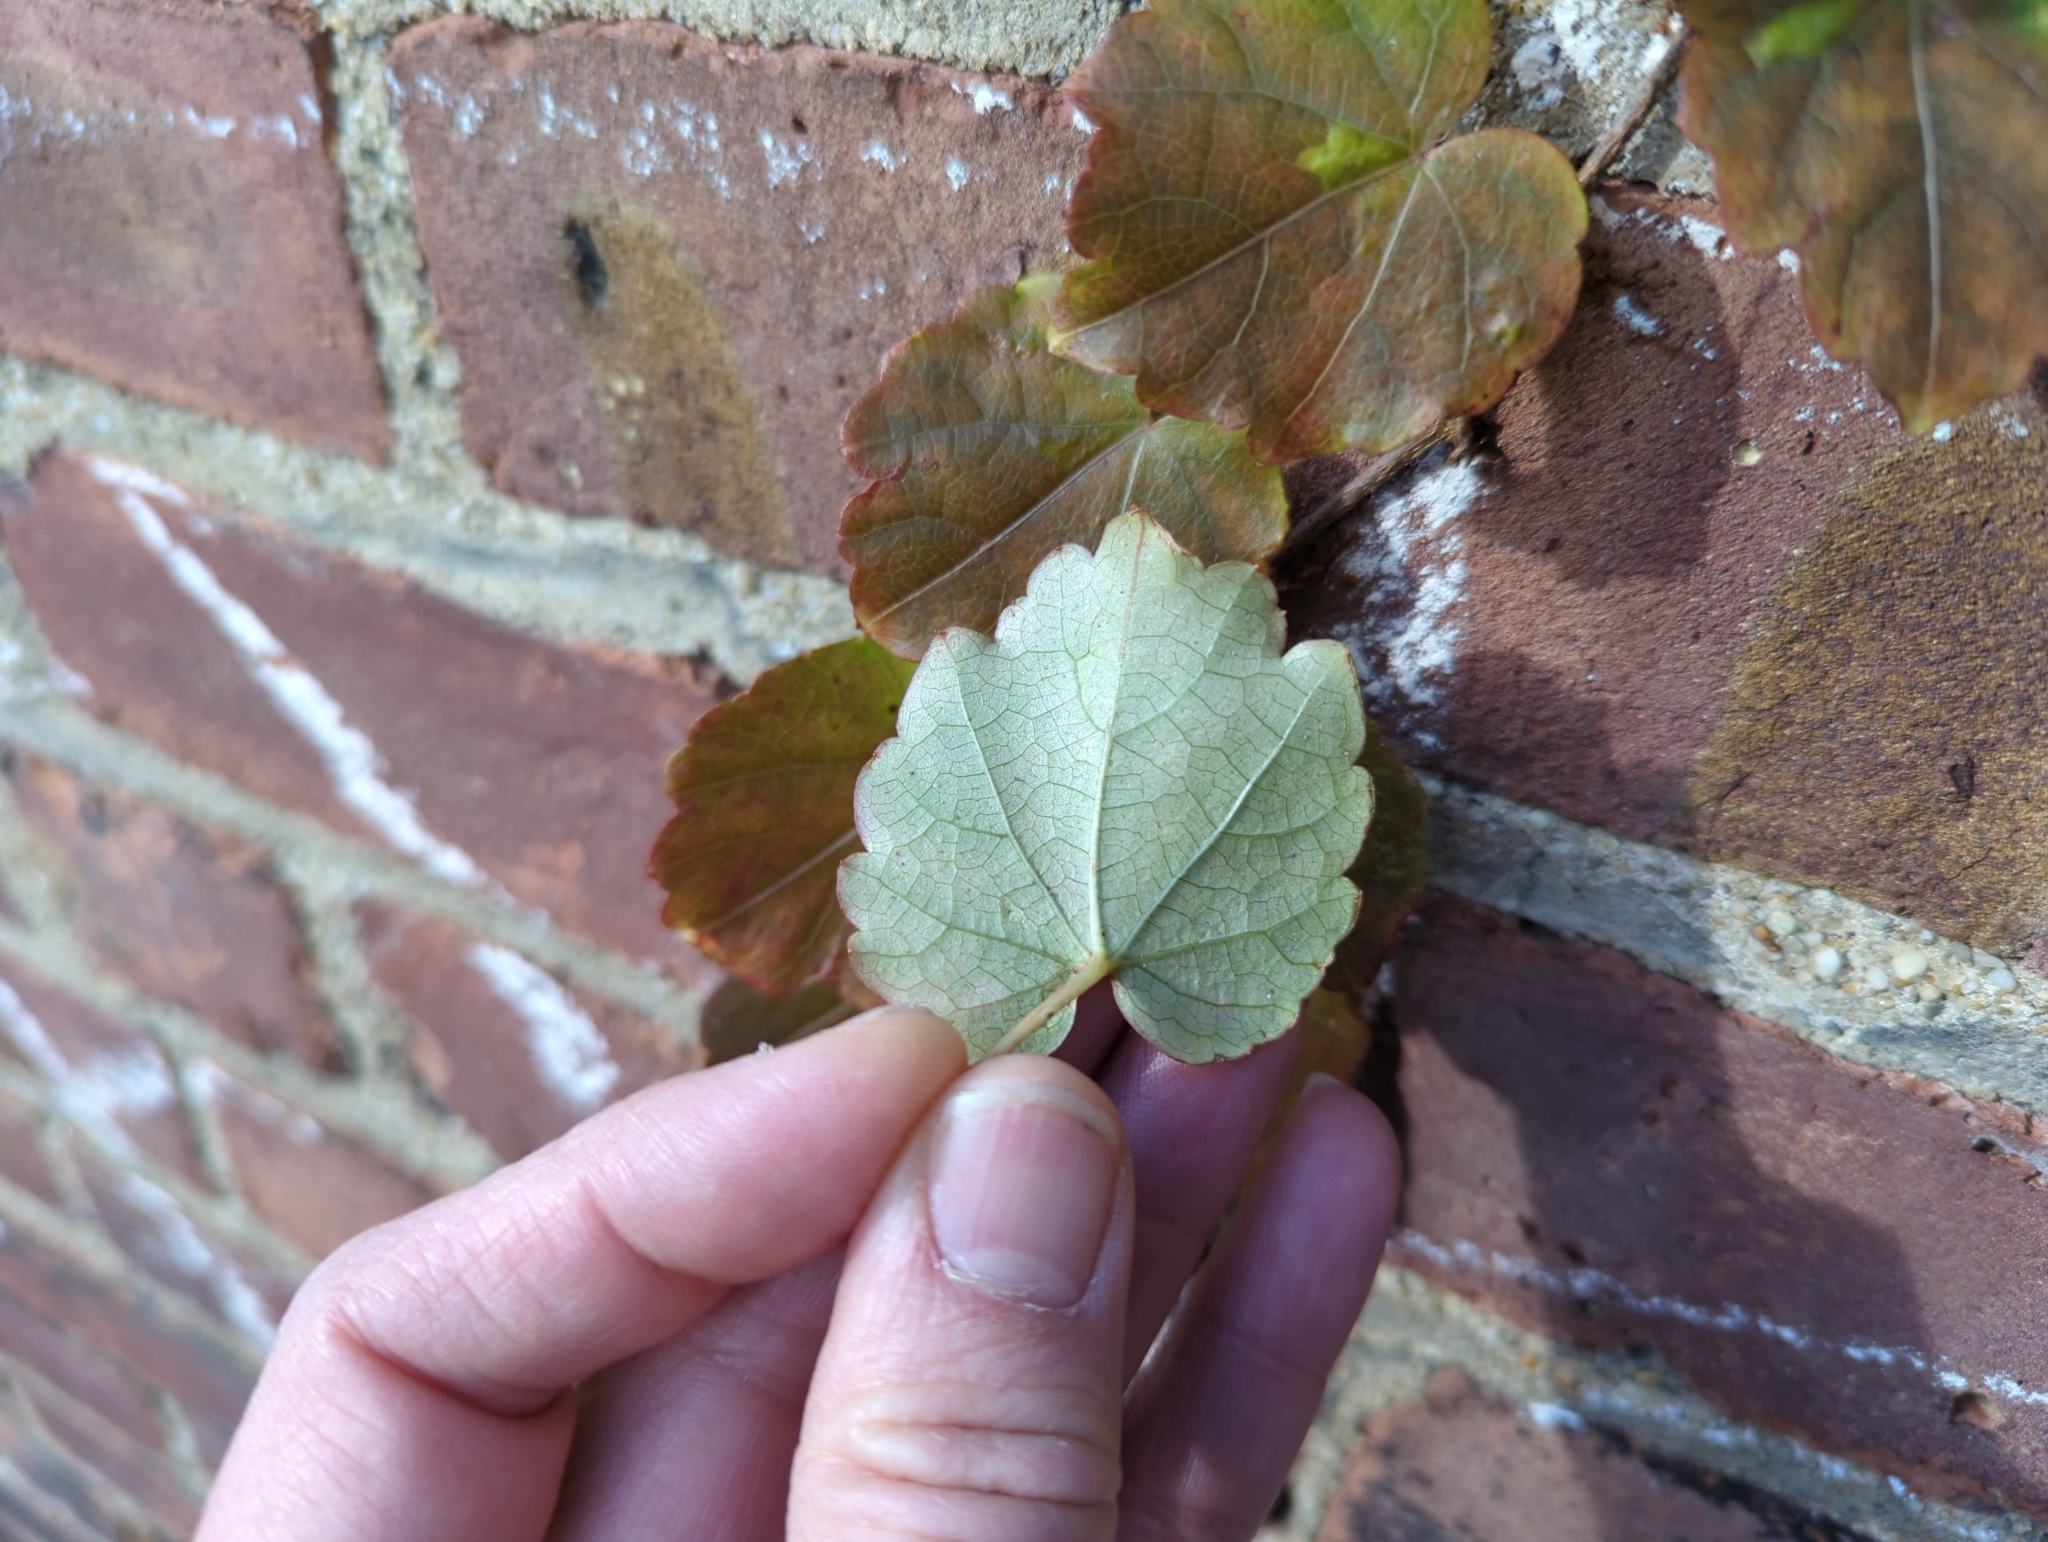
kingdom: Plantae
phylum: Tracheophyta
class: Magnoliopsida
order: Vitales
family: Vitaceae
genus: Parthenocissus
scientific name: Parthenocissus tricuspidata
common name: Boston ivy
